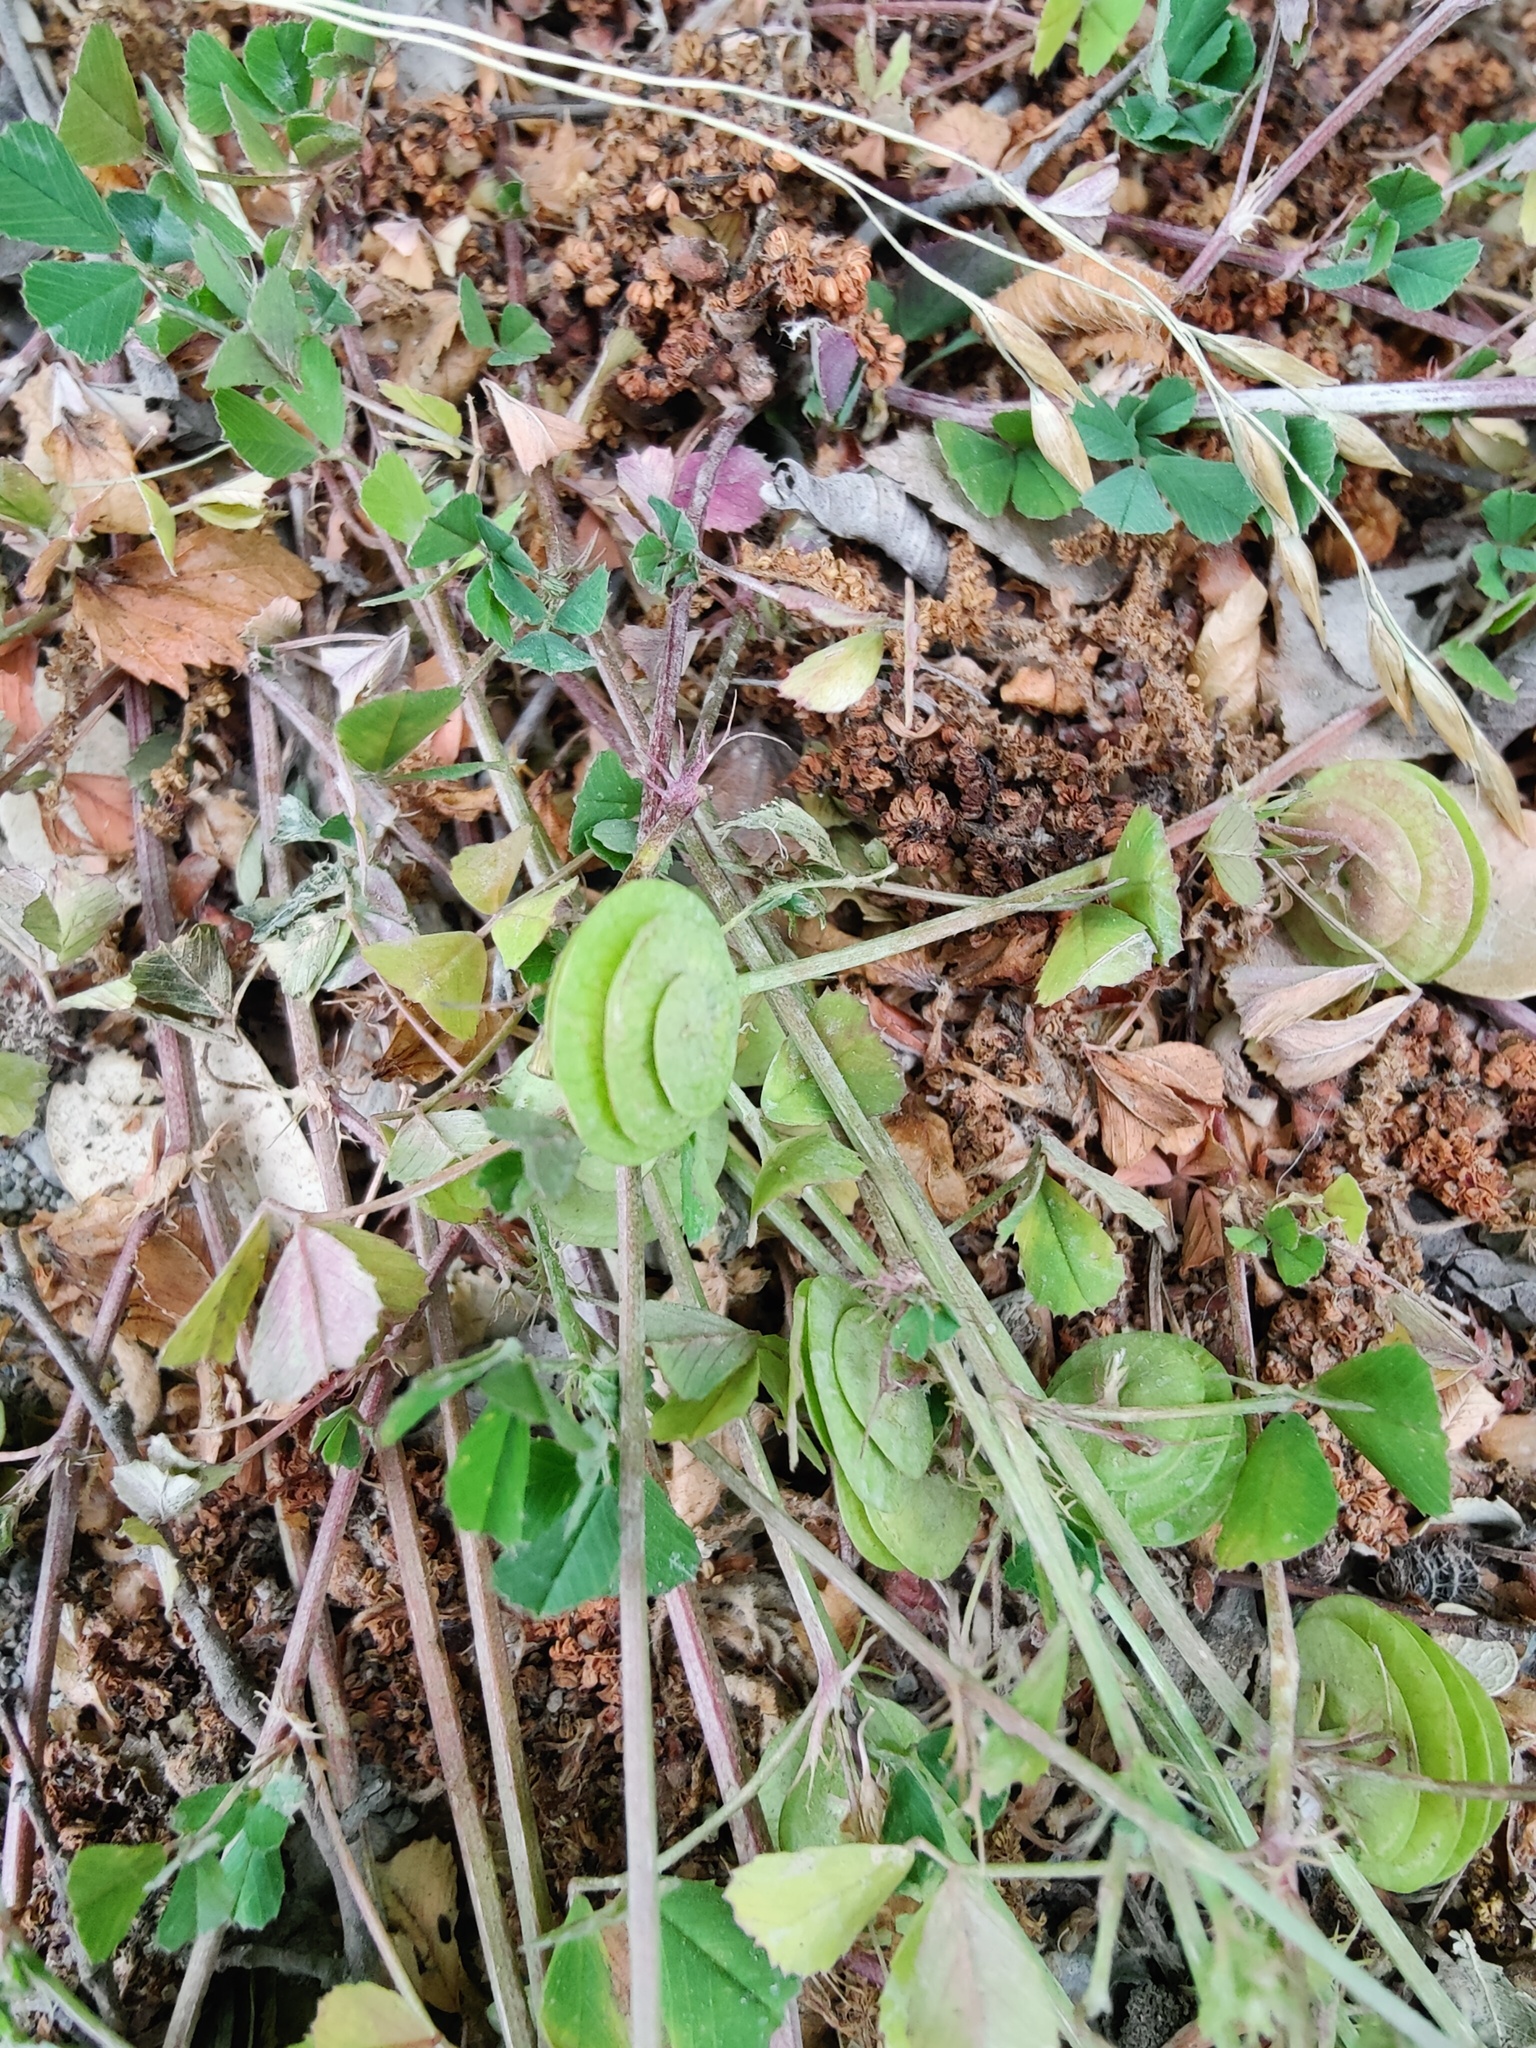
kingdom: Plantae
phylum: Tracheophyta
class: Magnoliopsida
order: Fabales
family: Fabaceae
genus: Medicago
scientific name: Medicago orbicularis
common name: Button medick
